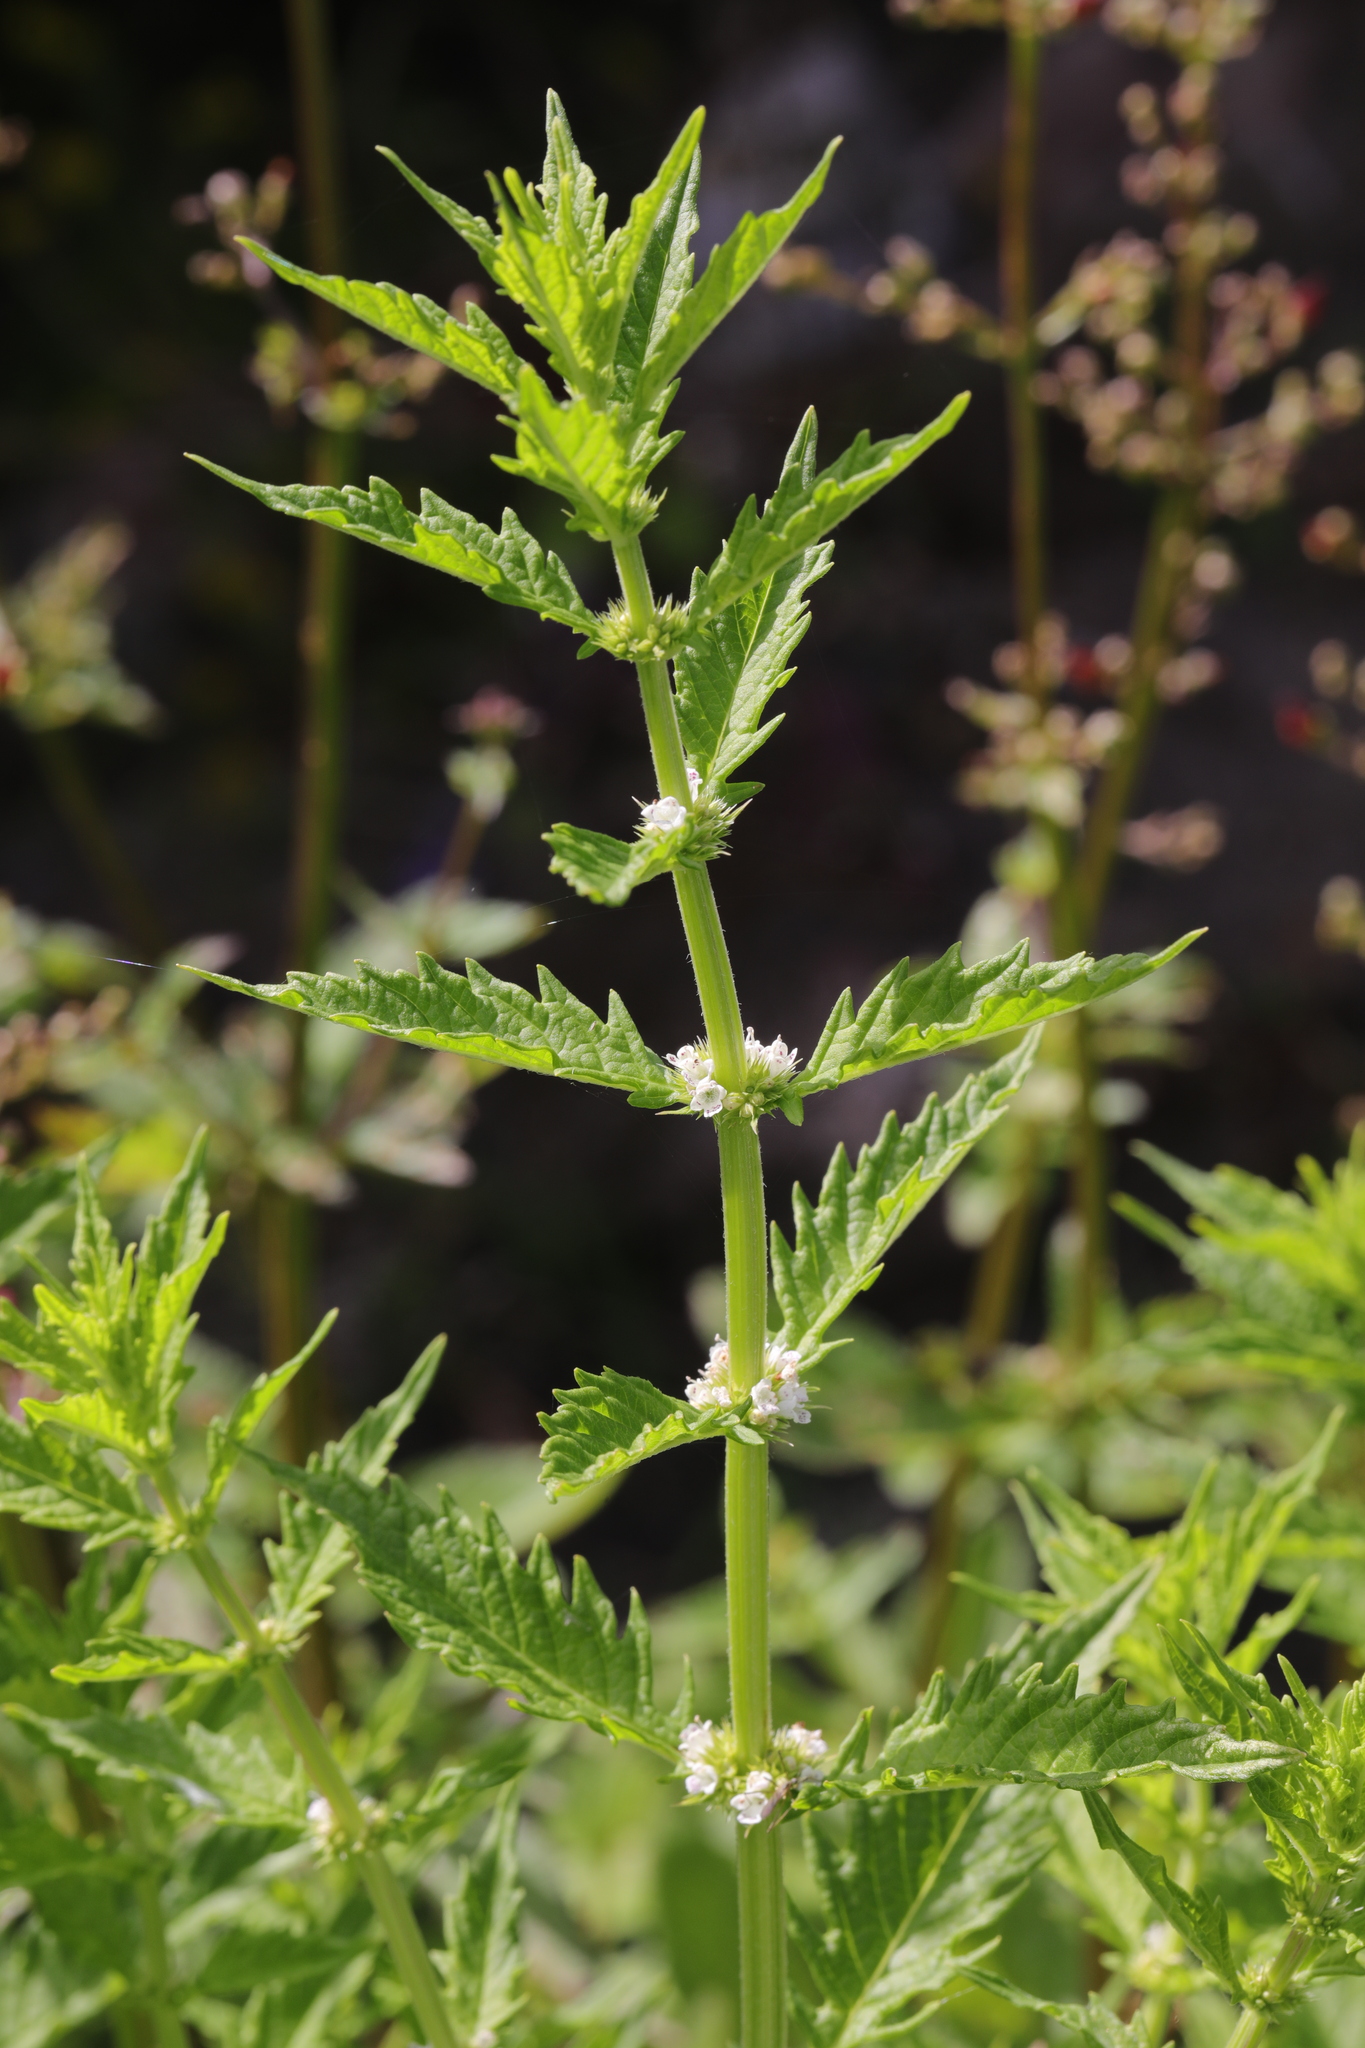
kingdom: Plantae
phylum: Tracheophyta
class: Magnoliopsida
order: Lamiales
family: Lamiaceae
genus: Lycopus
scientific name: Lycopus europaeus
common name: European bugleweed
